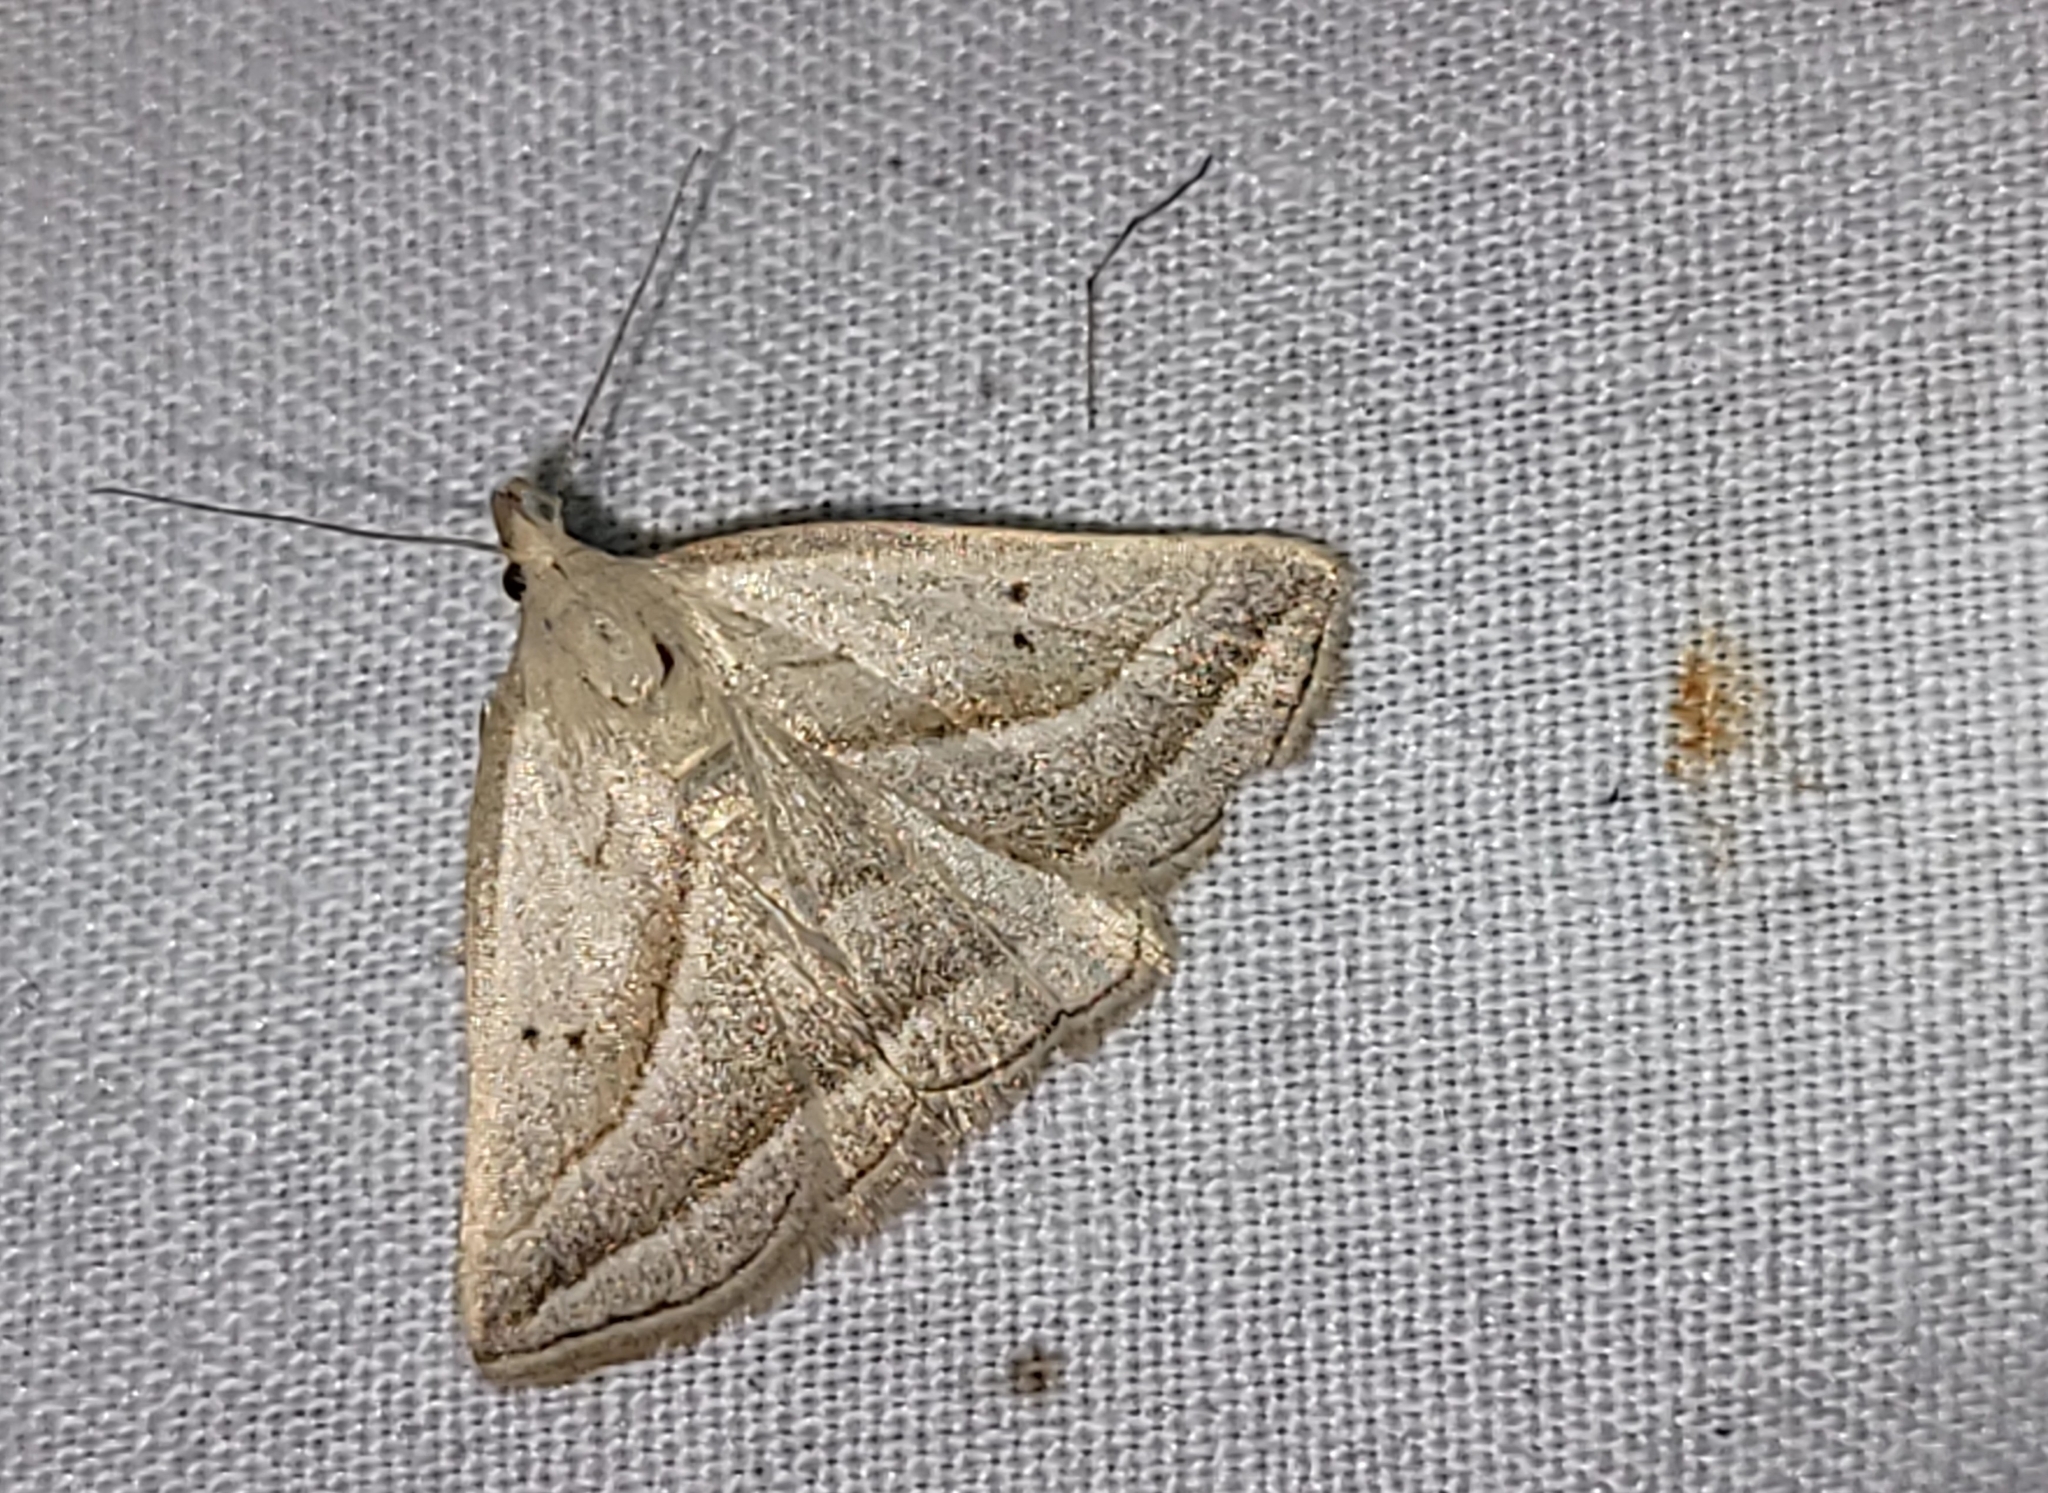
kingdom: Animalia
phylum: Arthropoda
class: Insecta
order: Lepidoptera
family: Erebidae
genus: Macrochilo
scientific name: Macrochilo absorptalis
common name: Slant-lined owlet
